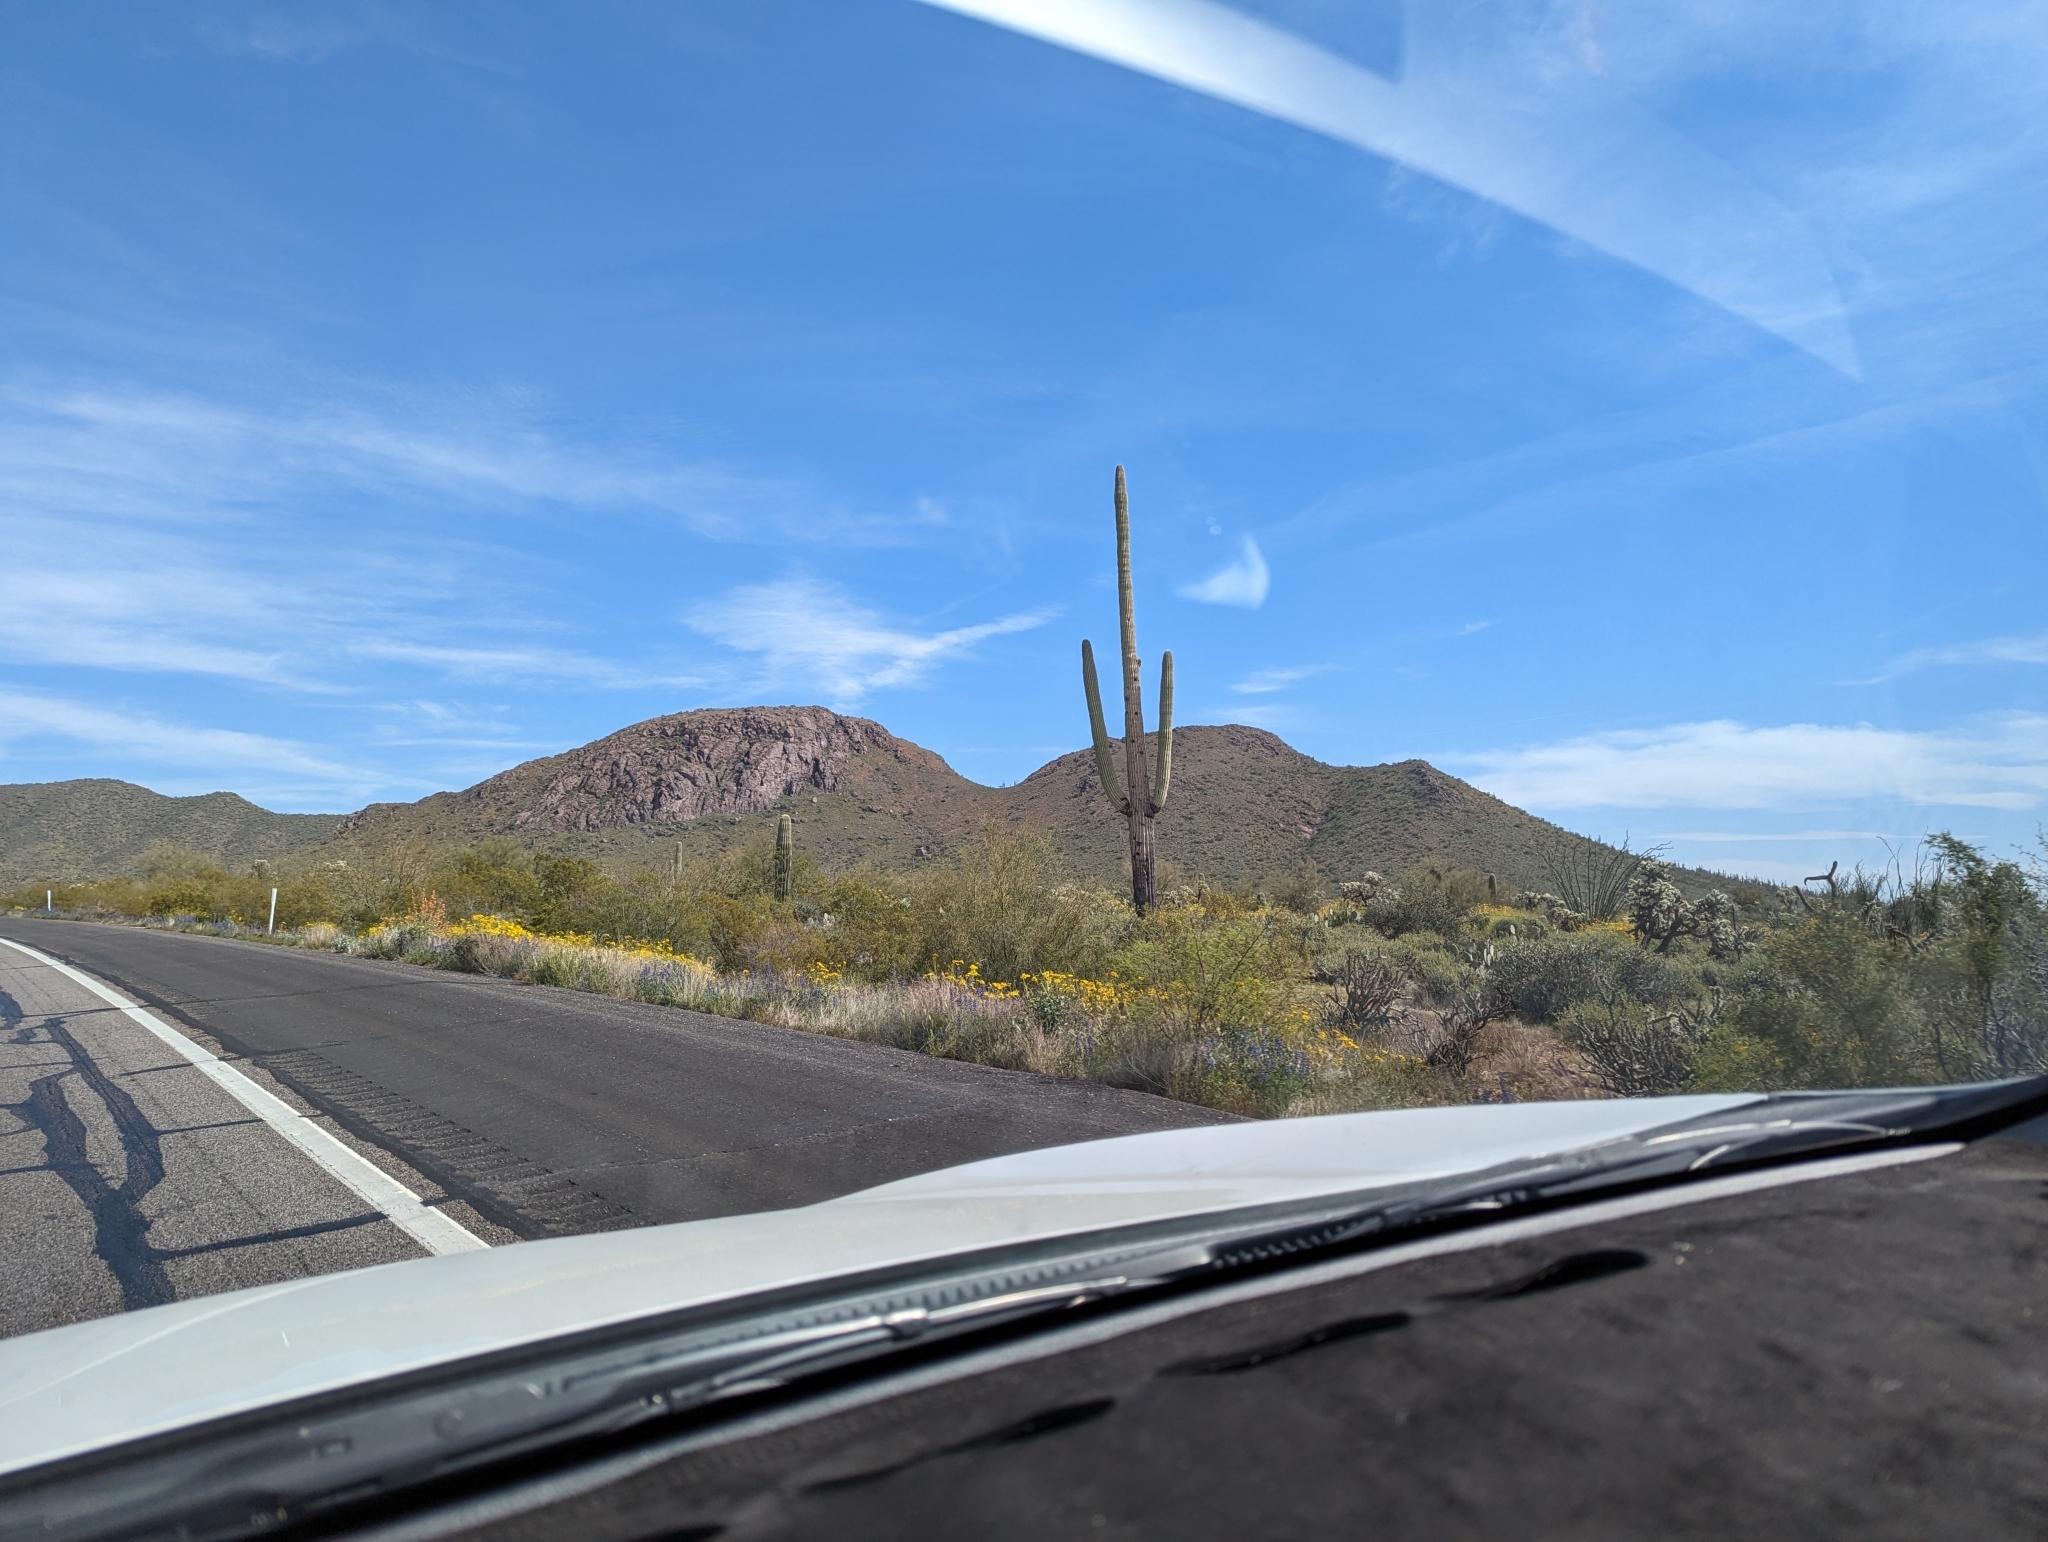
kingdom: Plantae
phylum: Tracheophyta
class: Magnoliopsida
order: Caryophyllales
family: Cactaceae
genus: Carnegiea
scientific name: Carnegiea gigantea
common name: Saguaro
